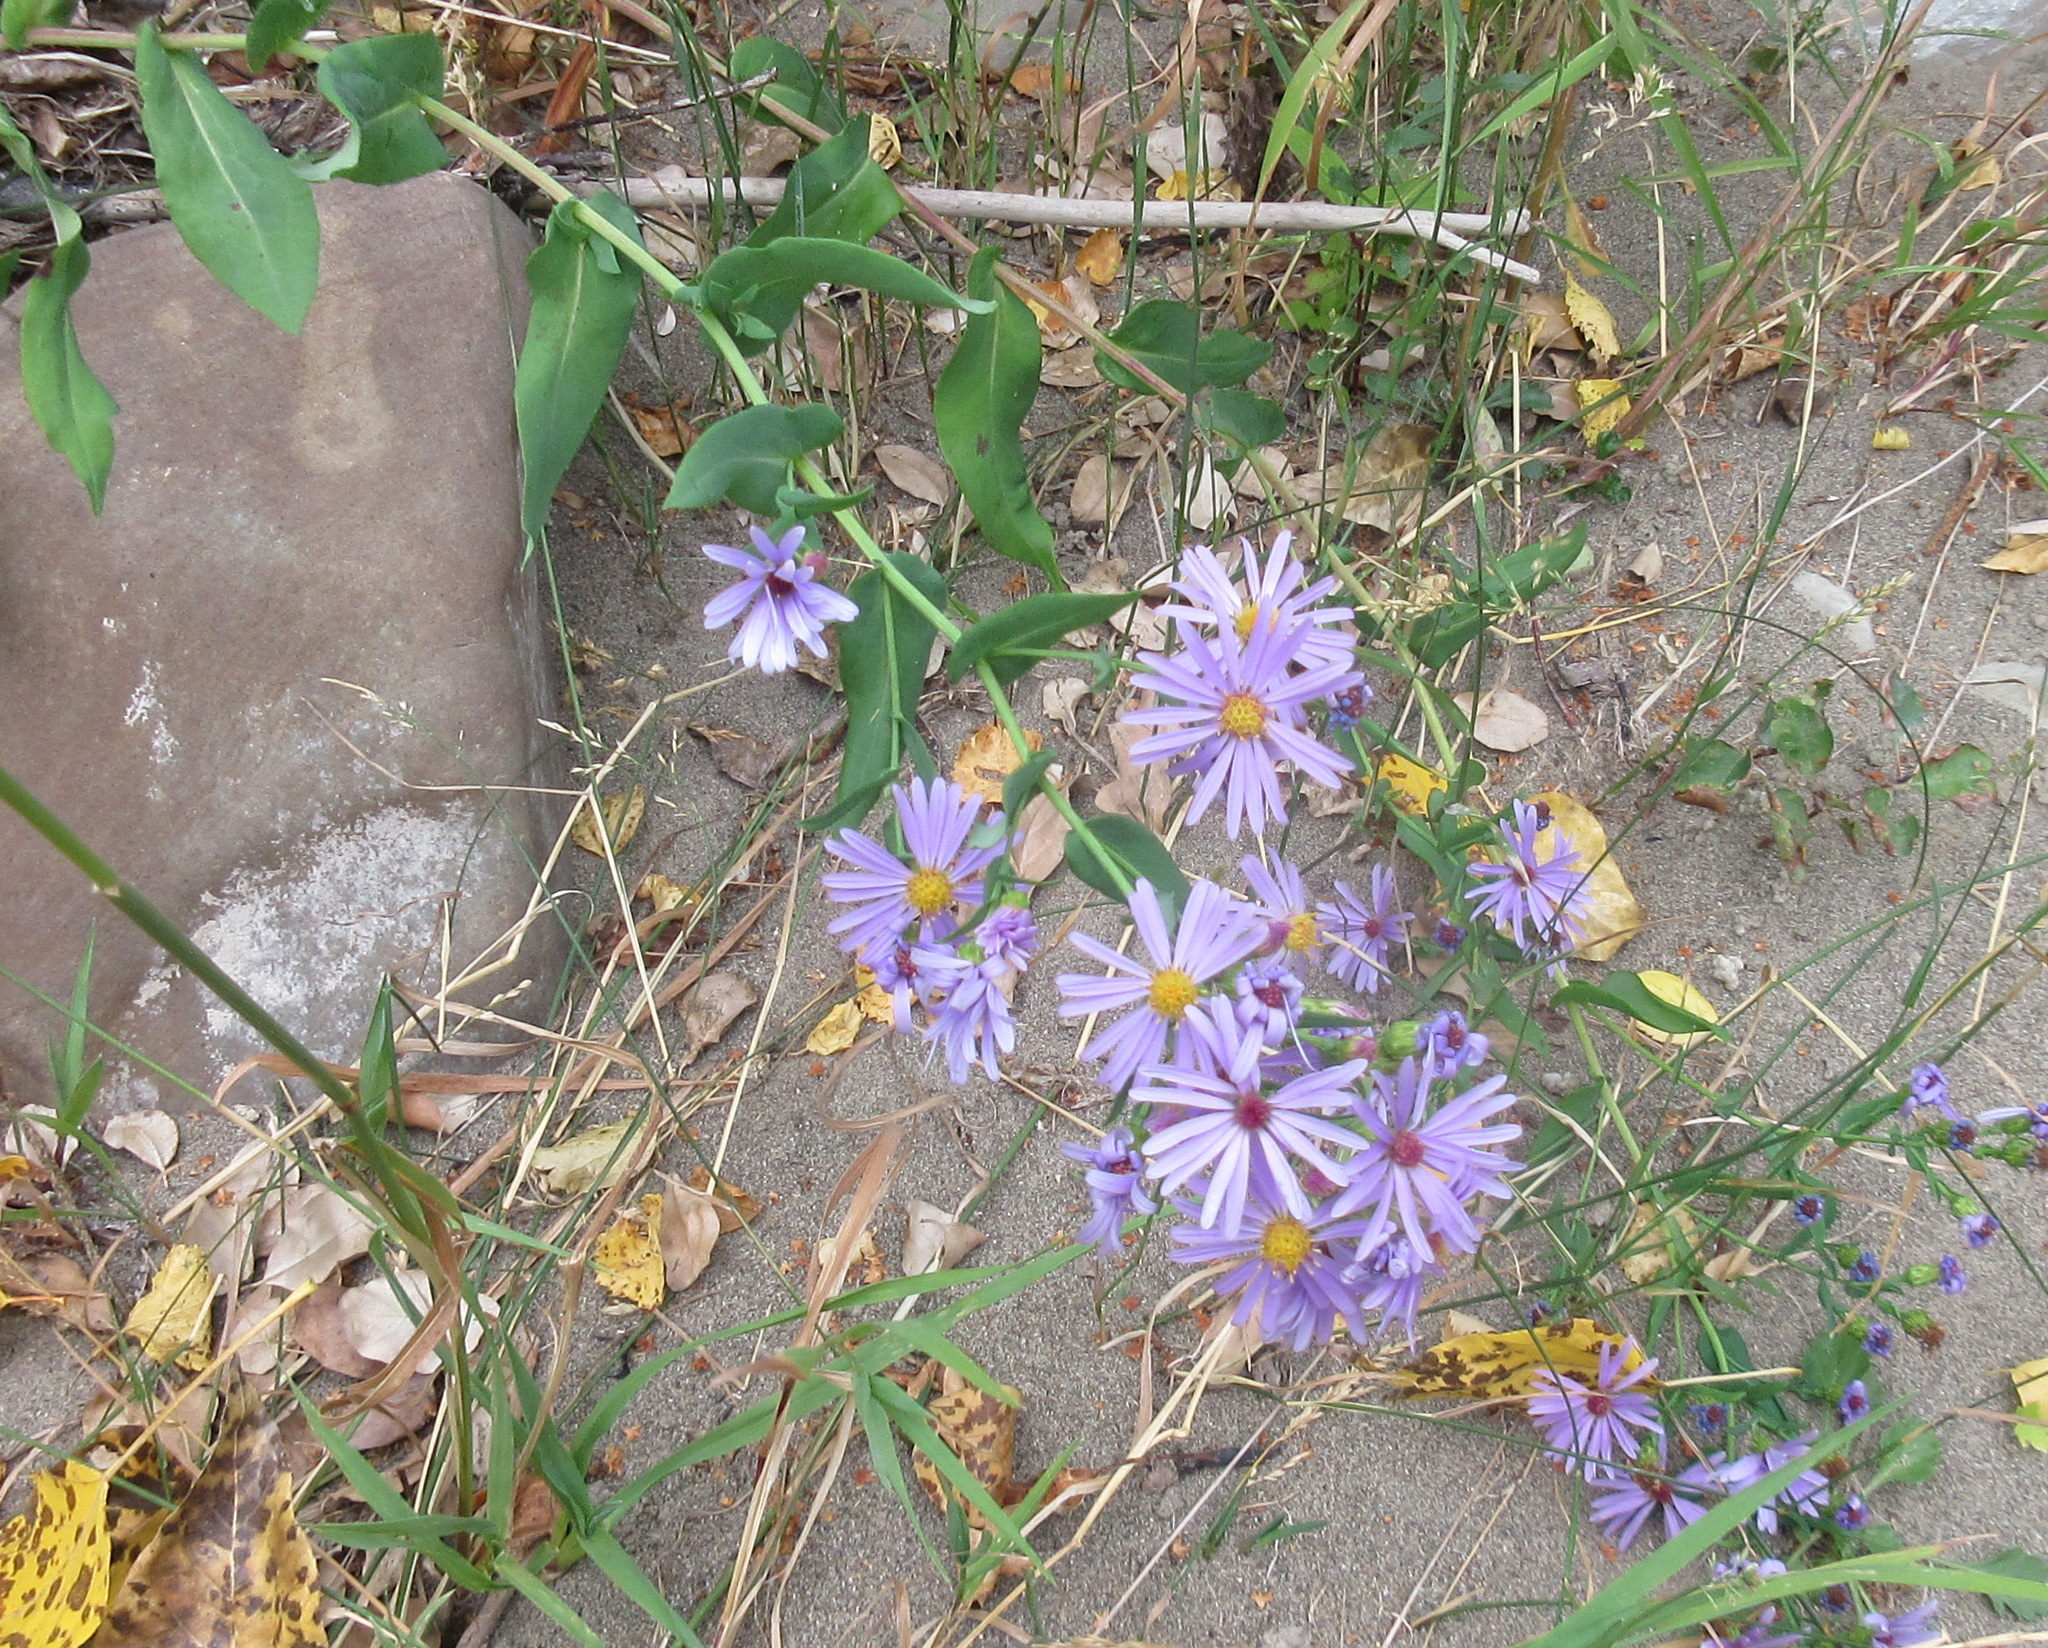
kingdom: Plantae
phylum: Tracheophyta
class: Magnoliopsida
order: Asterales
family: Asteraceae
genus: Symphyotrichum
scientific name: Symphyotrichum laeve
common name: Glaucous aster
